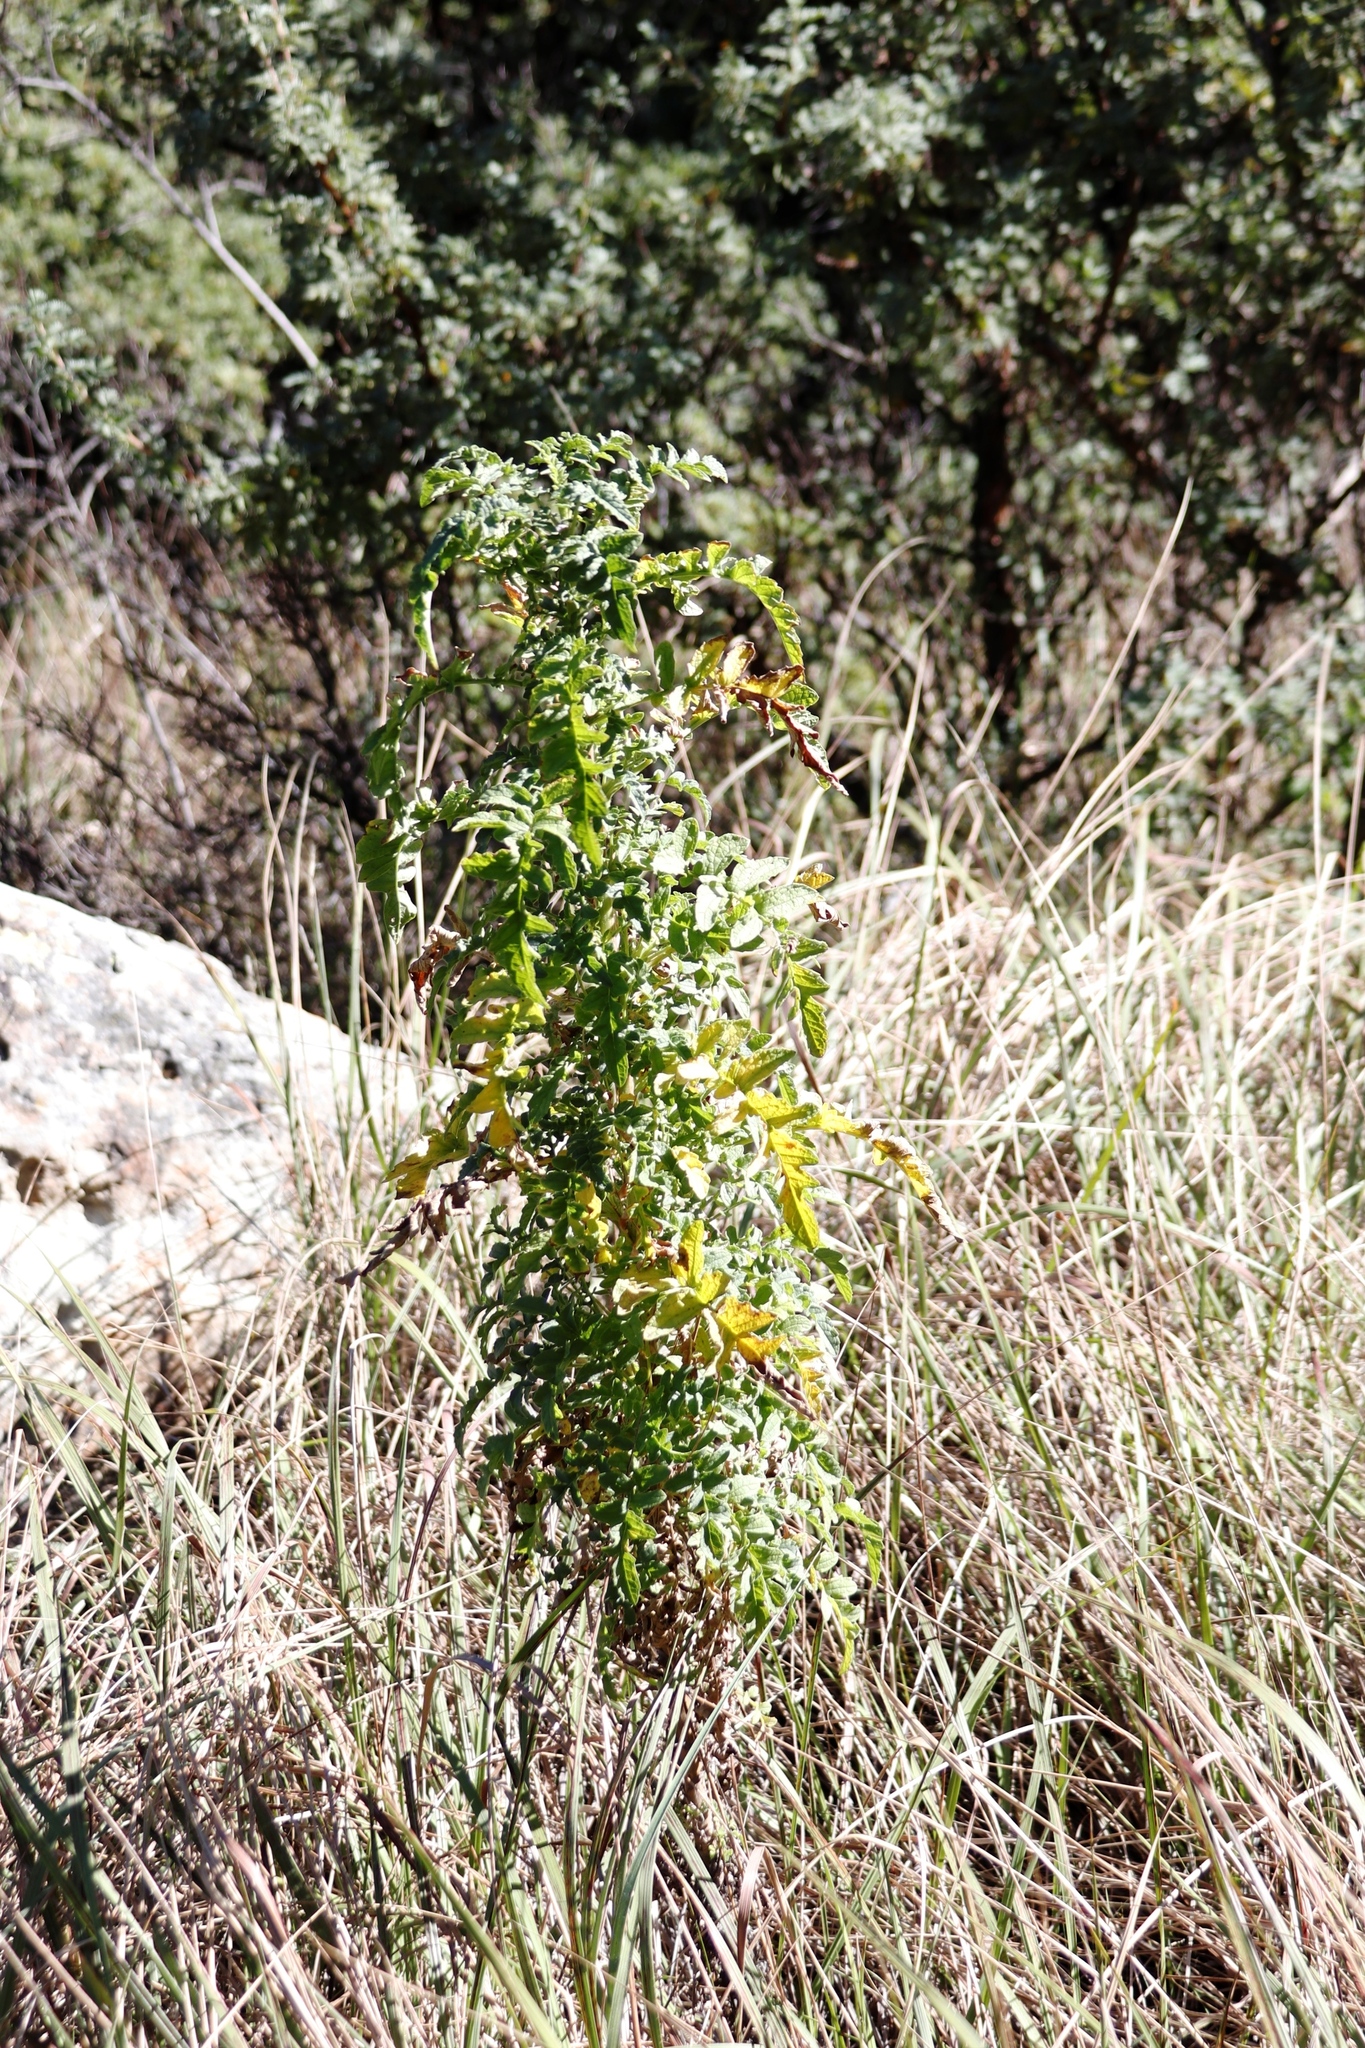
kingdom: Plantae
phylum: Tracheophyta
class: Magnoliopsida
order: Asterales
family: Asteraceae
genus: Heteromma
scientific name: Heteromma decurrens
